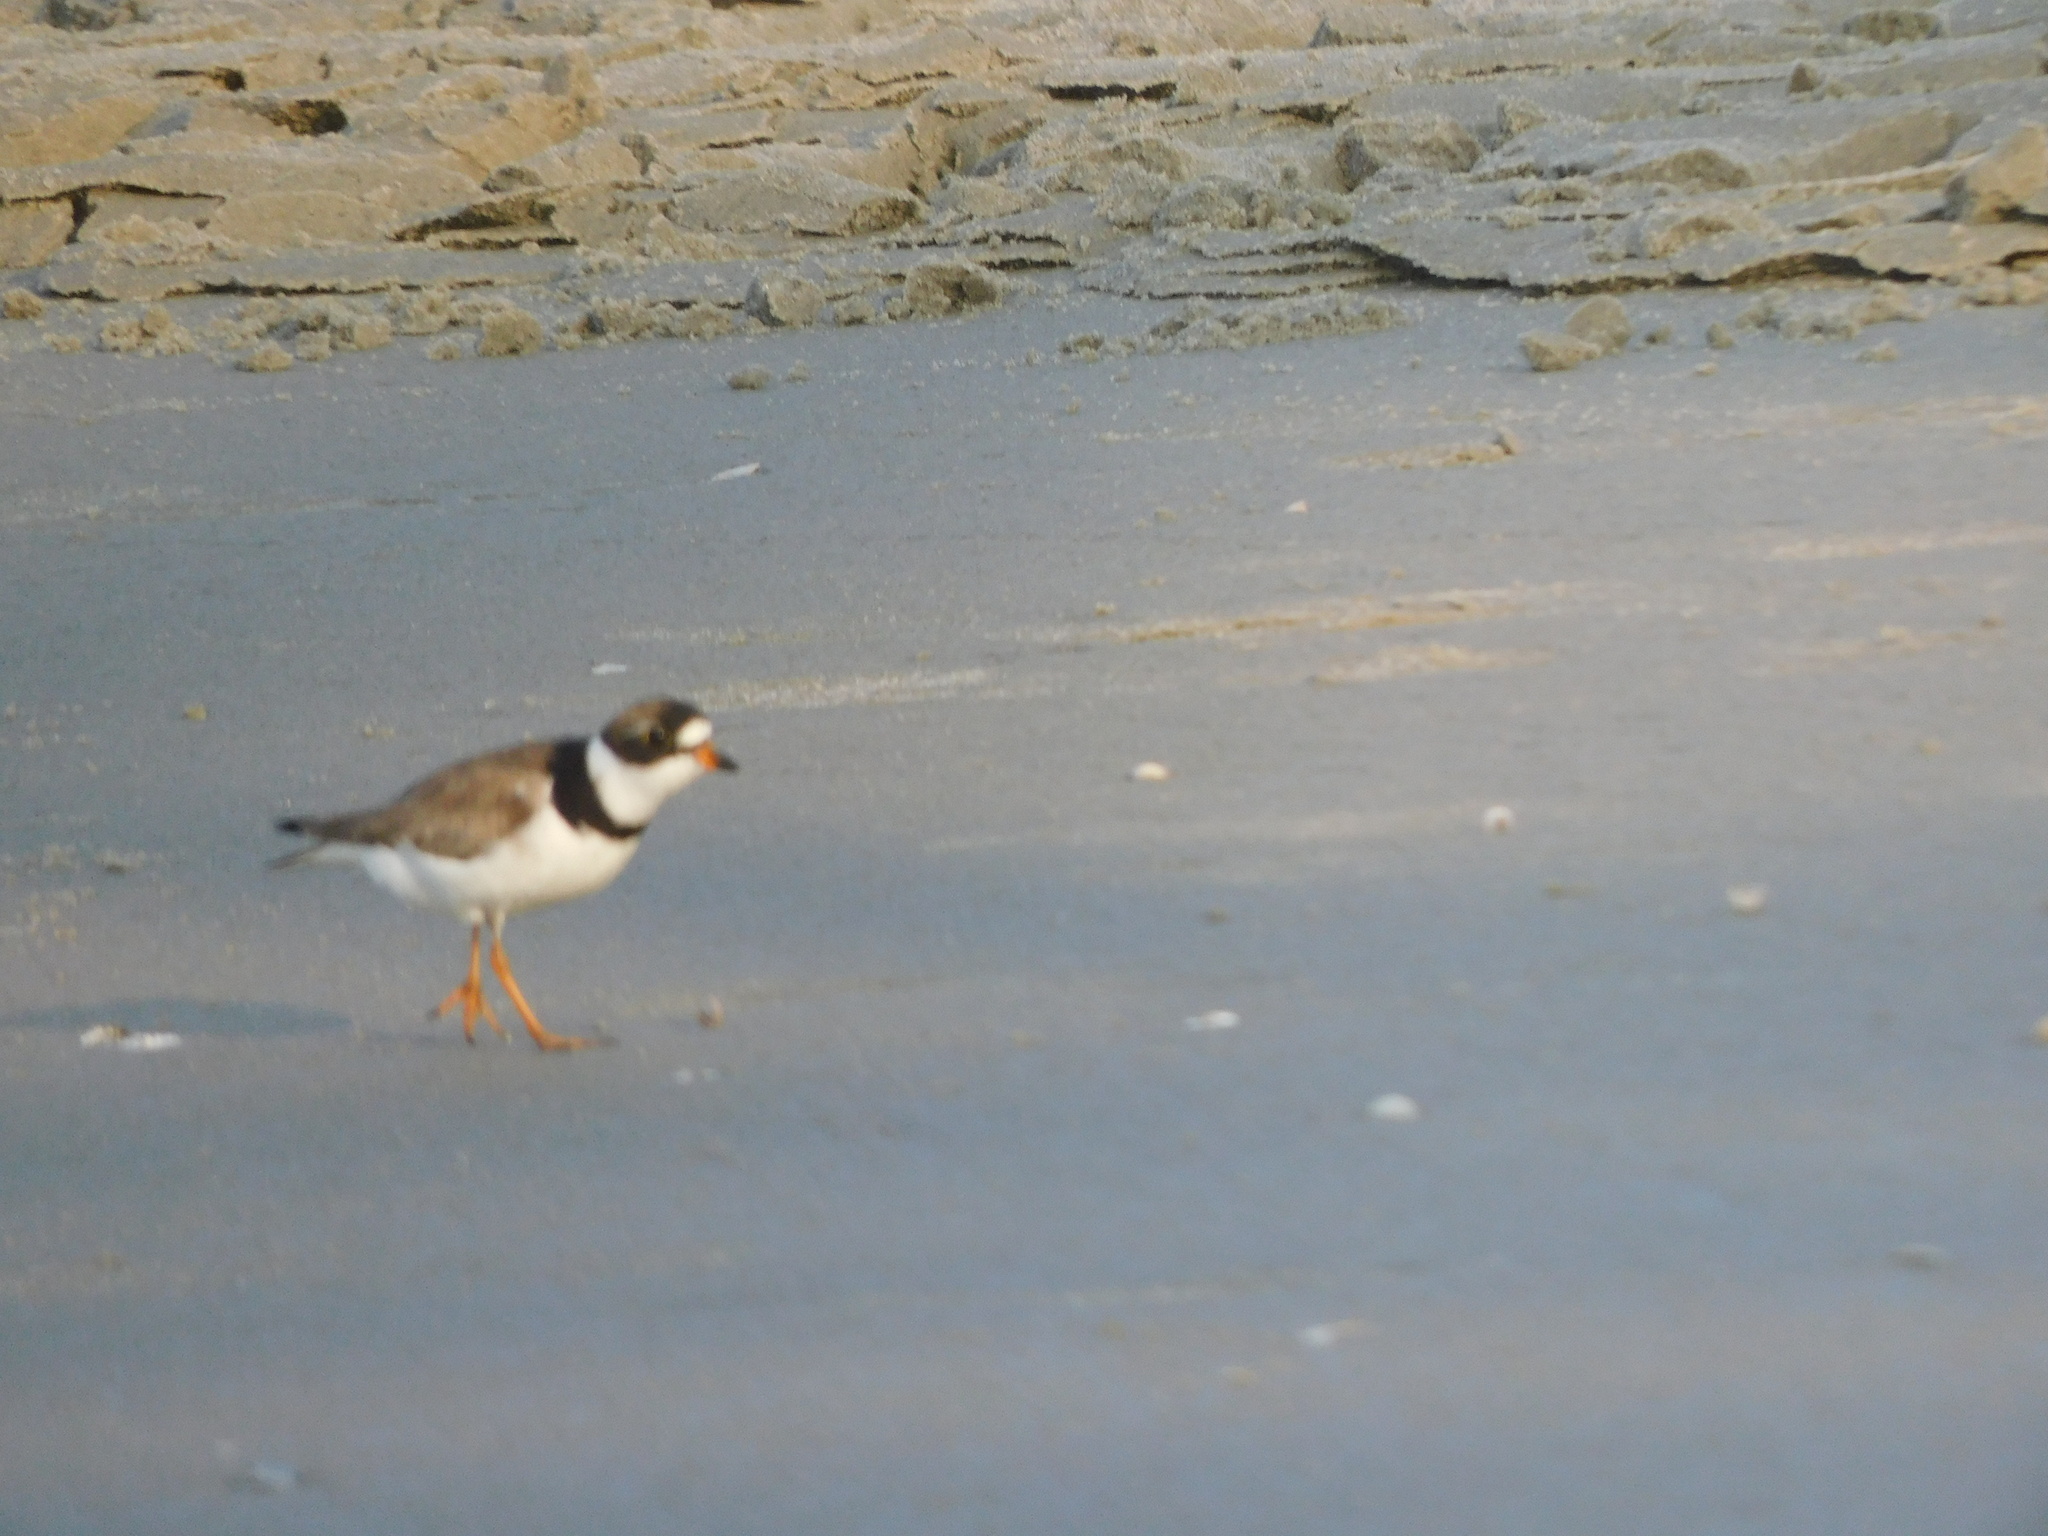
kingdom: Animalia
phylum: Chordata
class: Aves
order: Charadriiformes
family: Charadriidae
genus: Charadrius
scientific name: Charadrius semipalmatus
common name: Semipalmated plover
